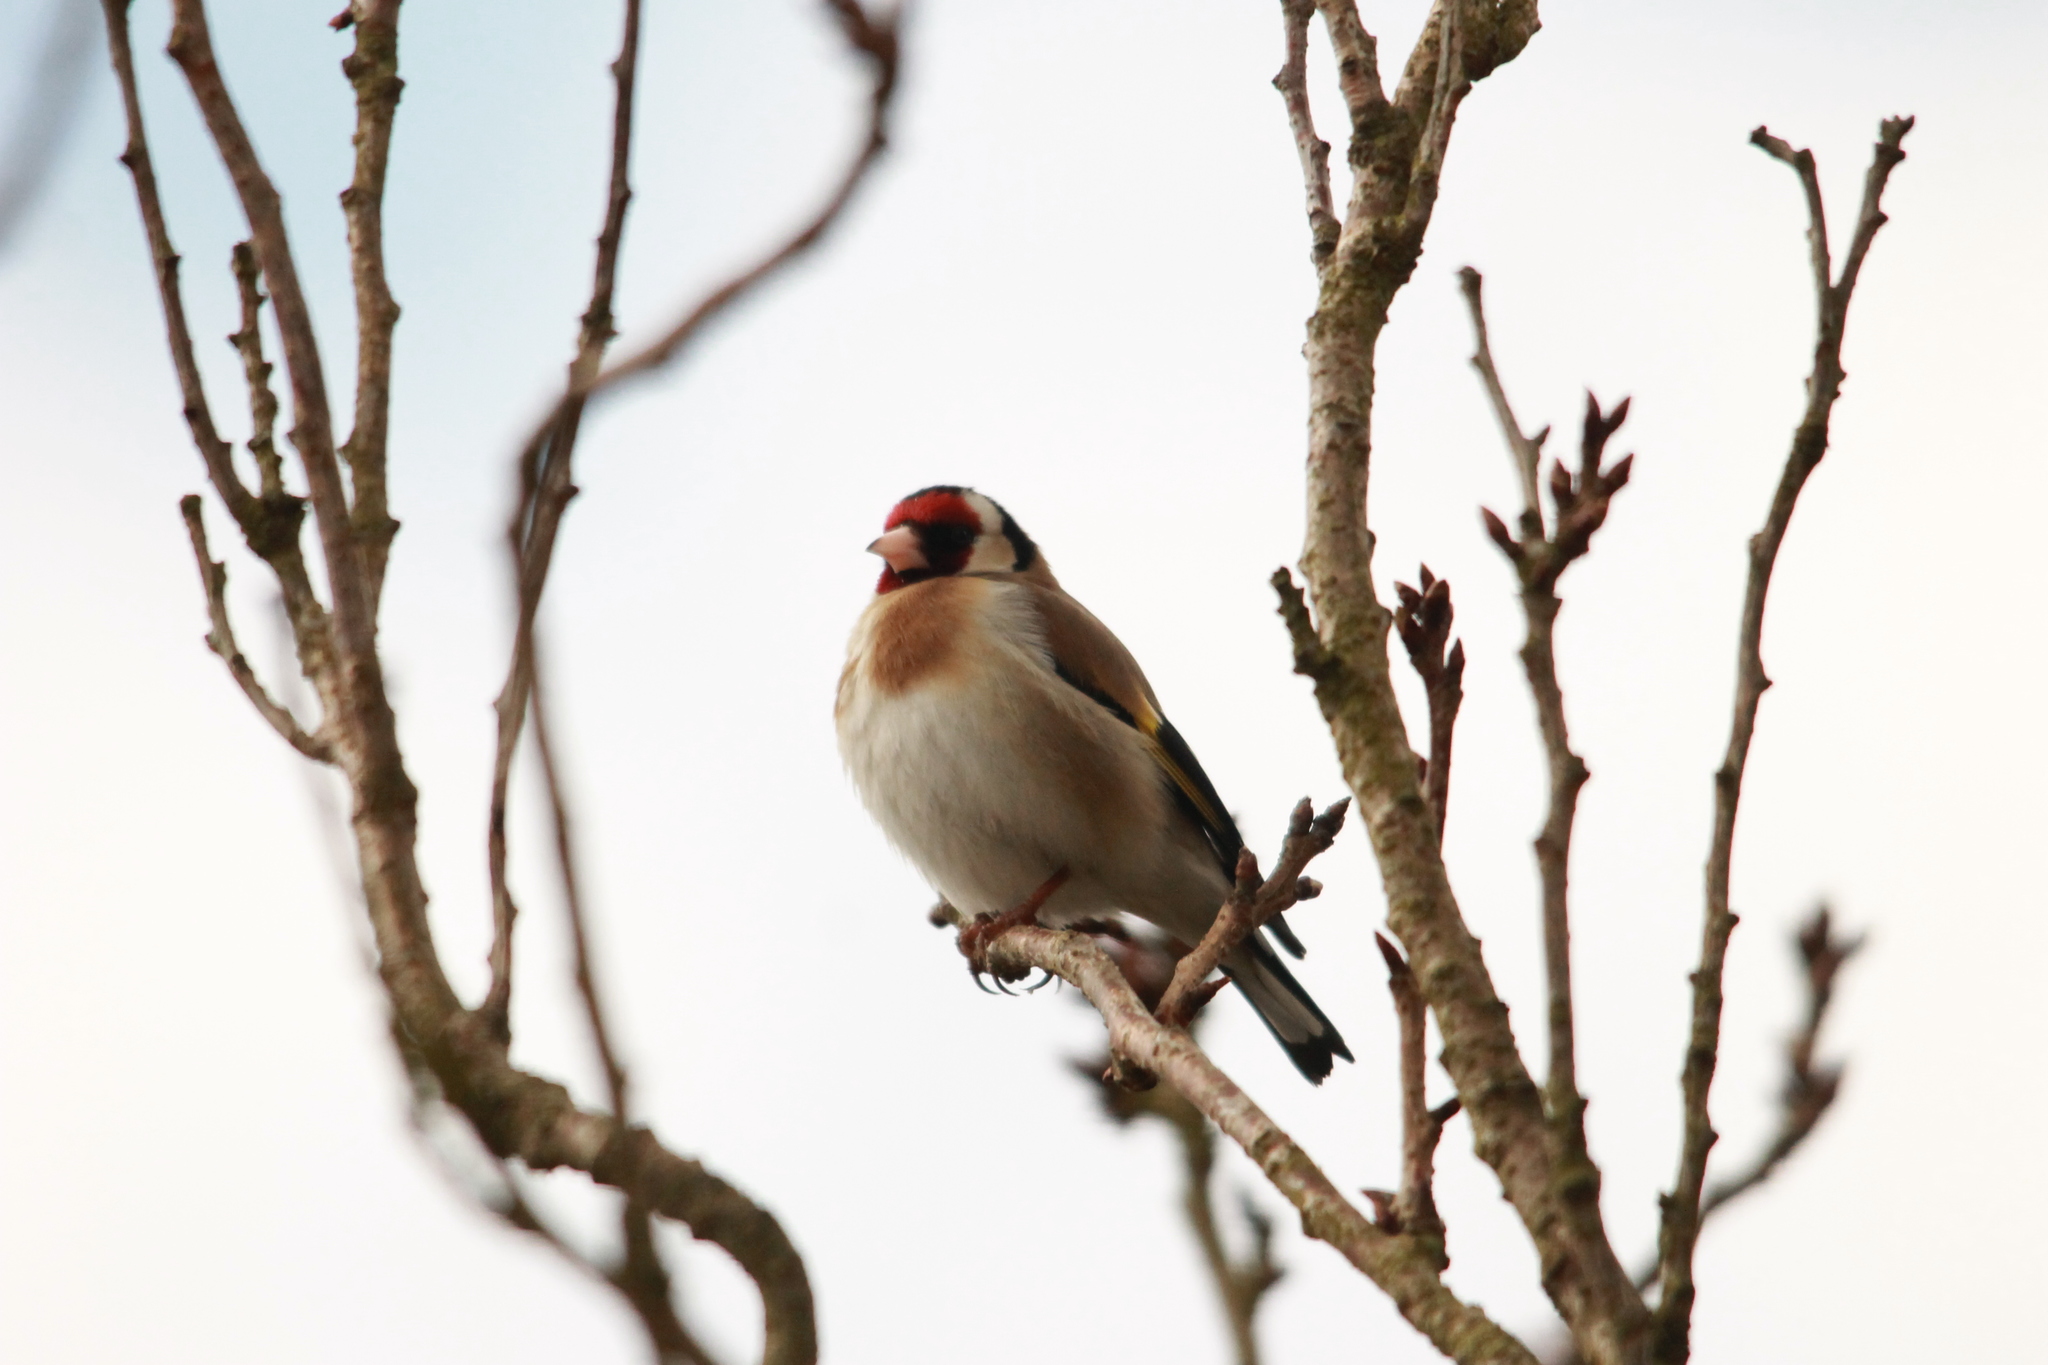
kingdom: Animalia
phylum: Chordata
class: Aves
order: Passeriformes
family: Fringillidae
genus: Carduelis
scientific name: Carduelis carduelis
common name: European goldfinch
